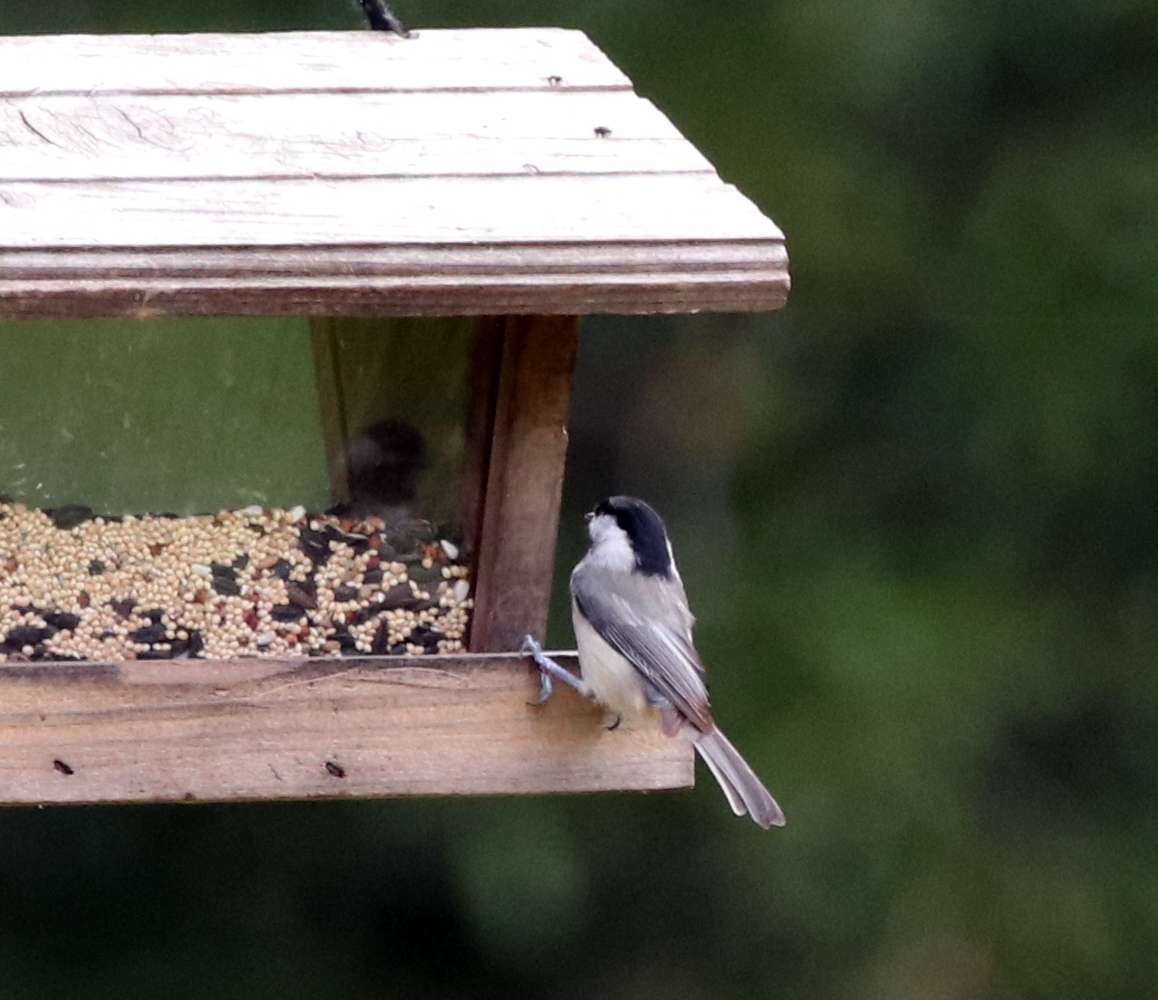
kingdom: Animalia
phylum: Chordata
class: Aves
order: Passeriformes
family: Paridae
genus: Poecile
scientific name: Poecile carolinensis
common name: Carolina chickadee
